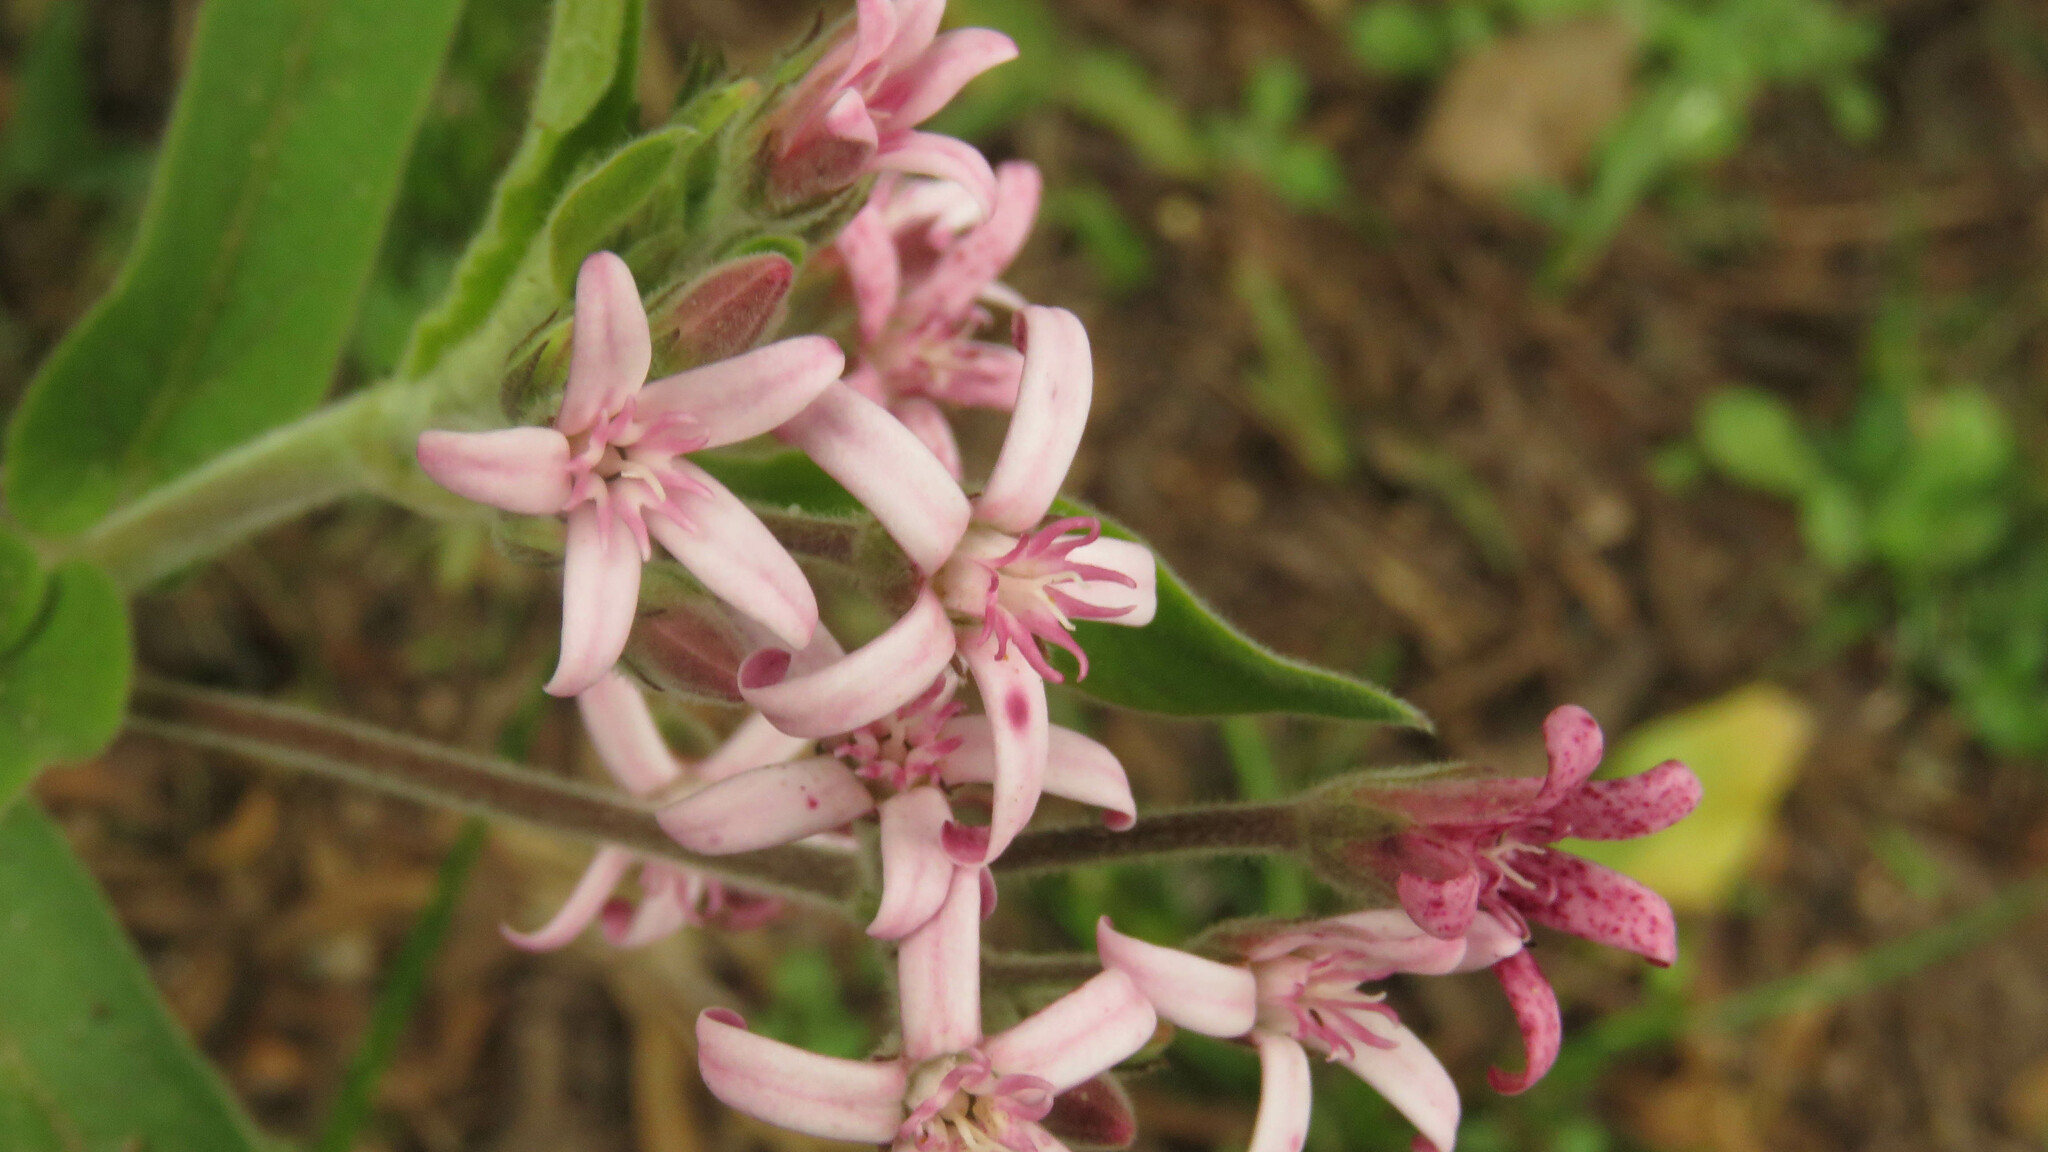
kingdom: Plantae
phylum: Tracheophyta
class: Magnoliopsida
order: Gentianales
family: Apocynaceae
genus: Oxypetalum
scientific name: Oxypetalum solanoides
